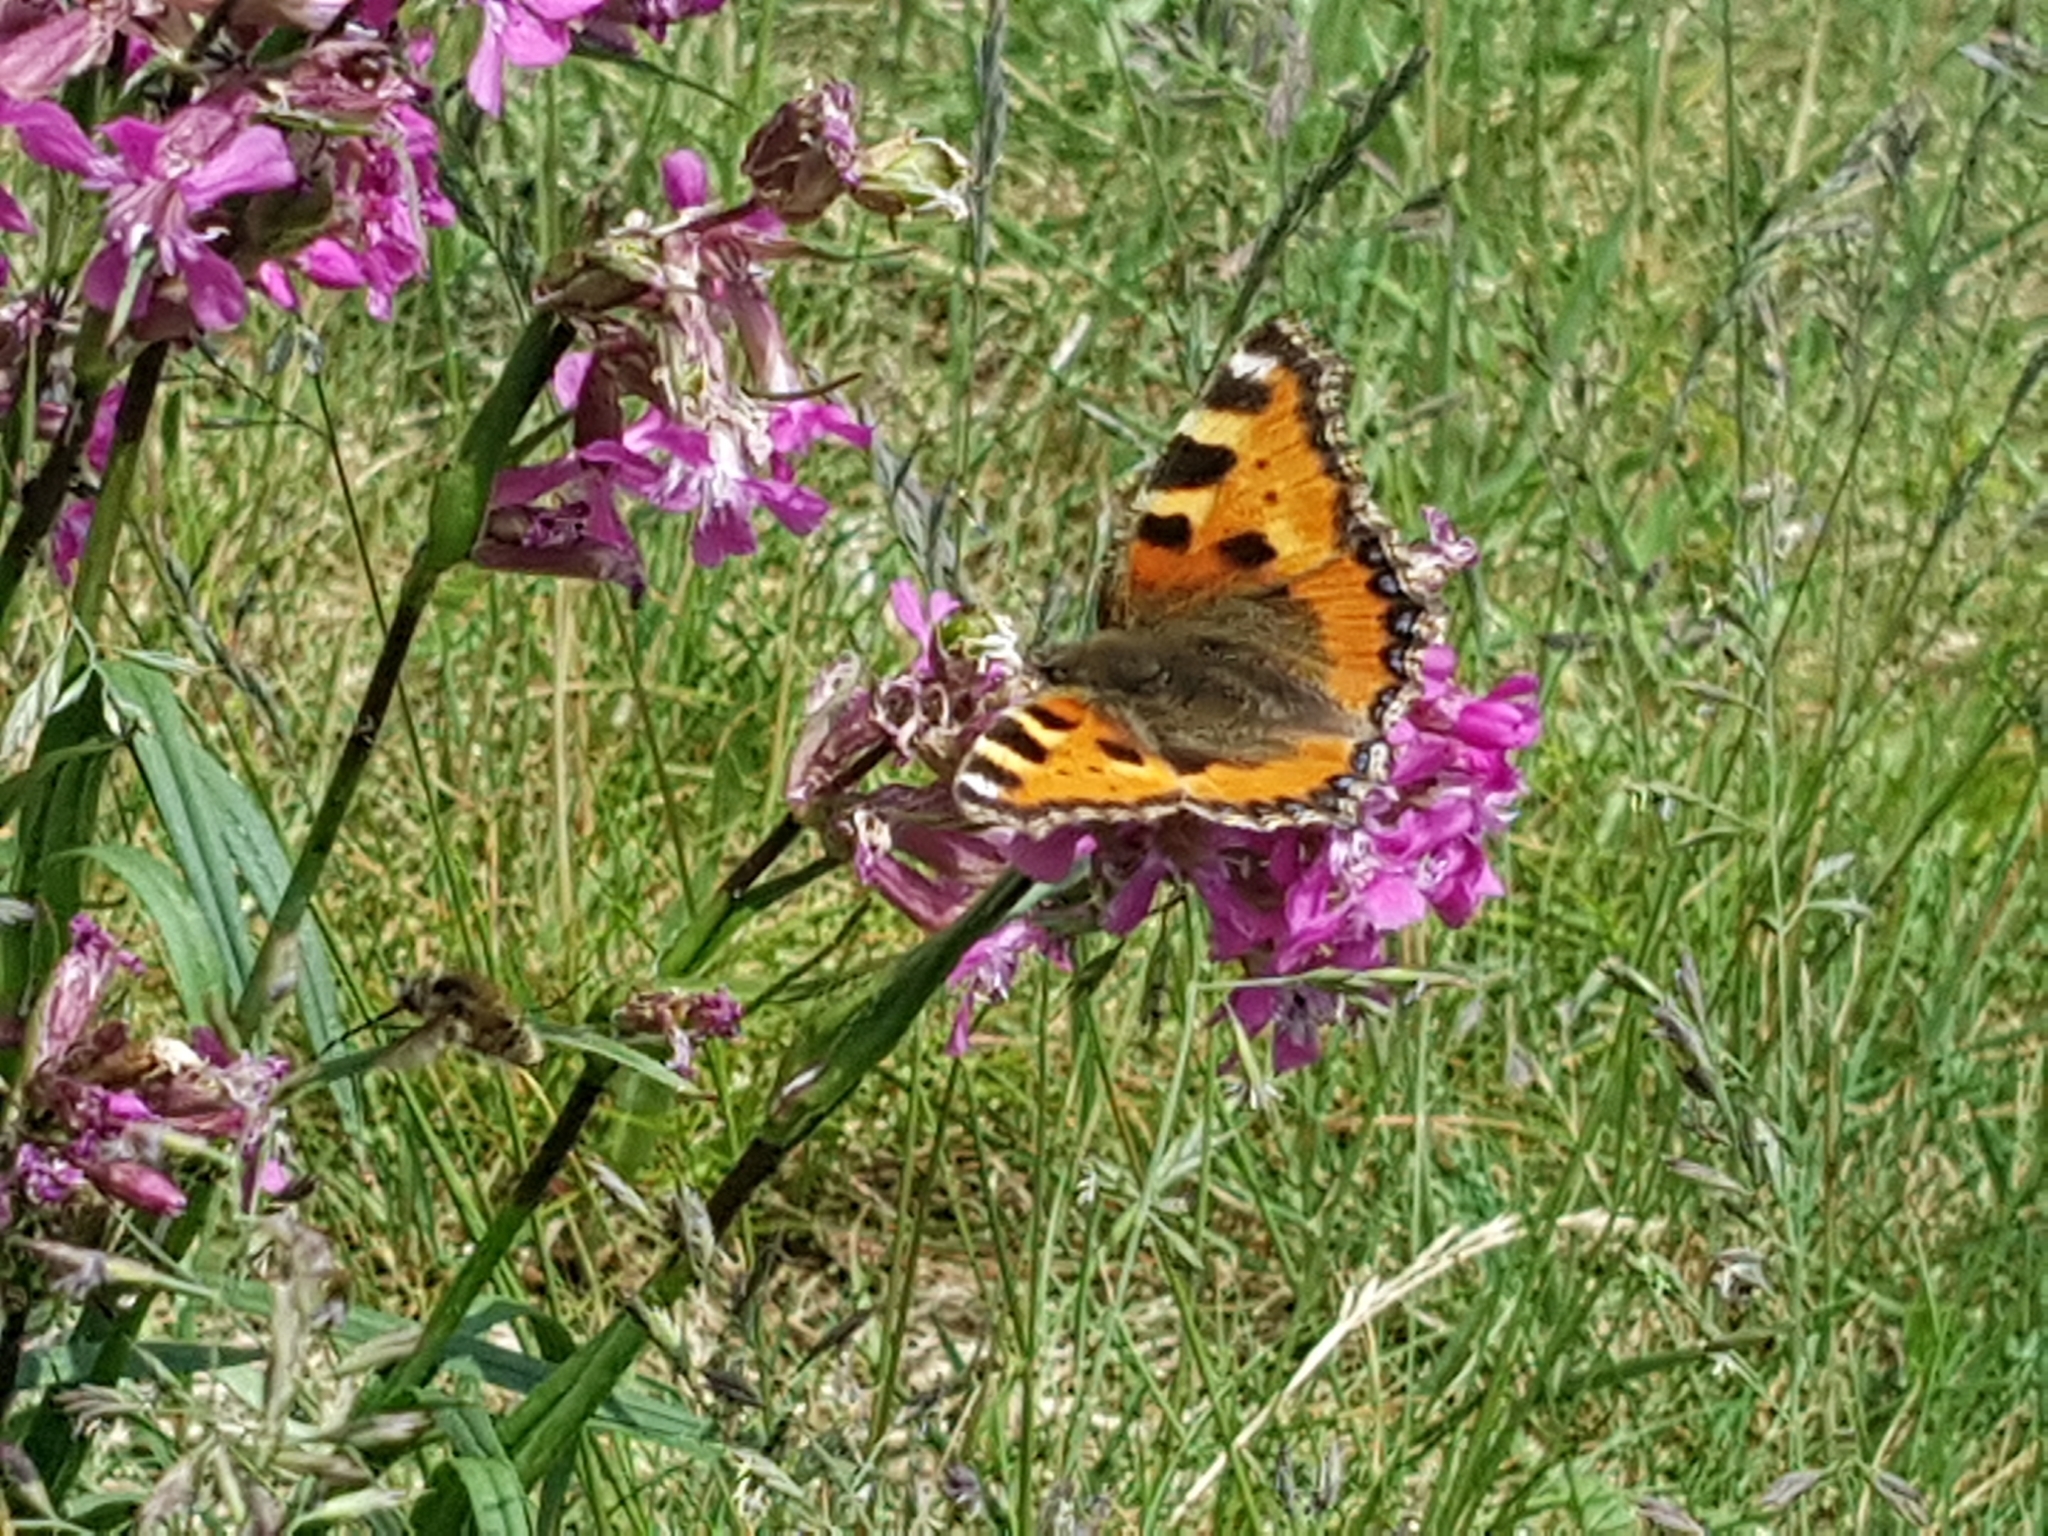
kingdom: Animalia
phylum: Arthropoda
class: Insecta
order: Lepidoptera
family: Nymphalidae
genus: Aglais
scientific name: Aglais urticae
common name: Small tortoiseshell
